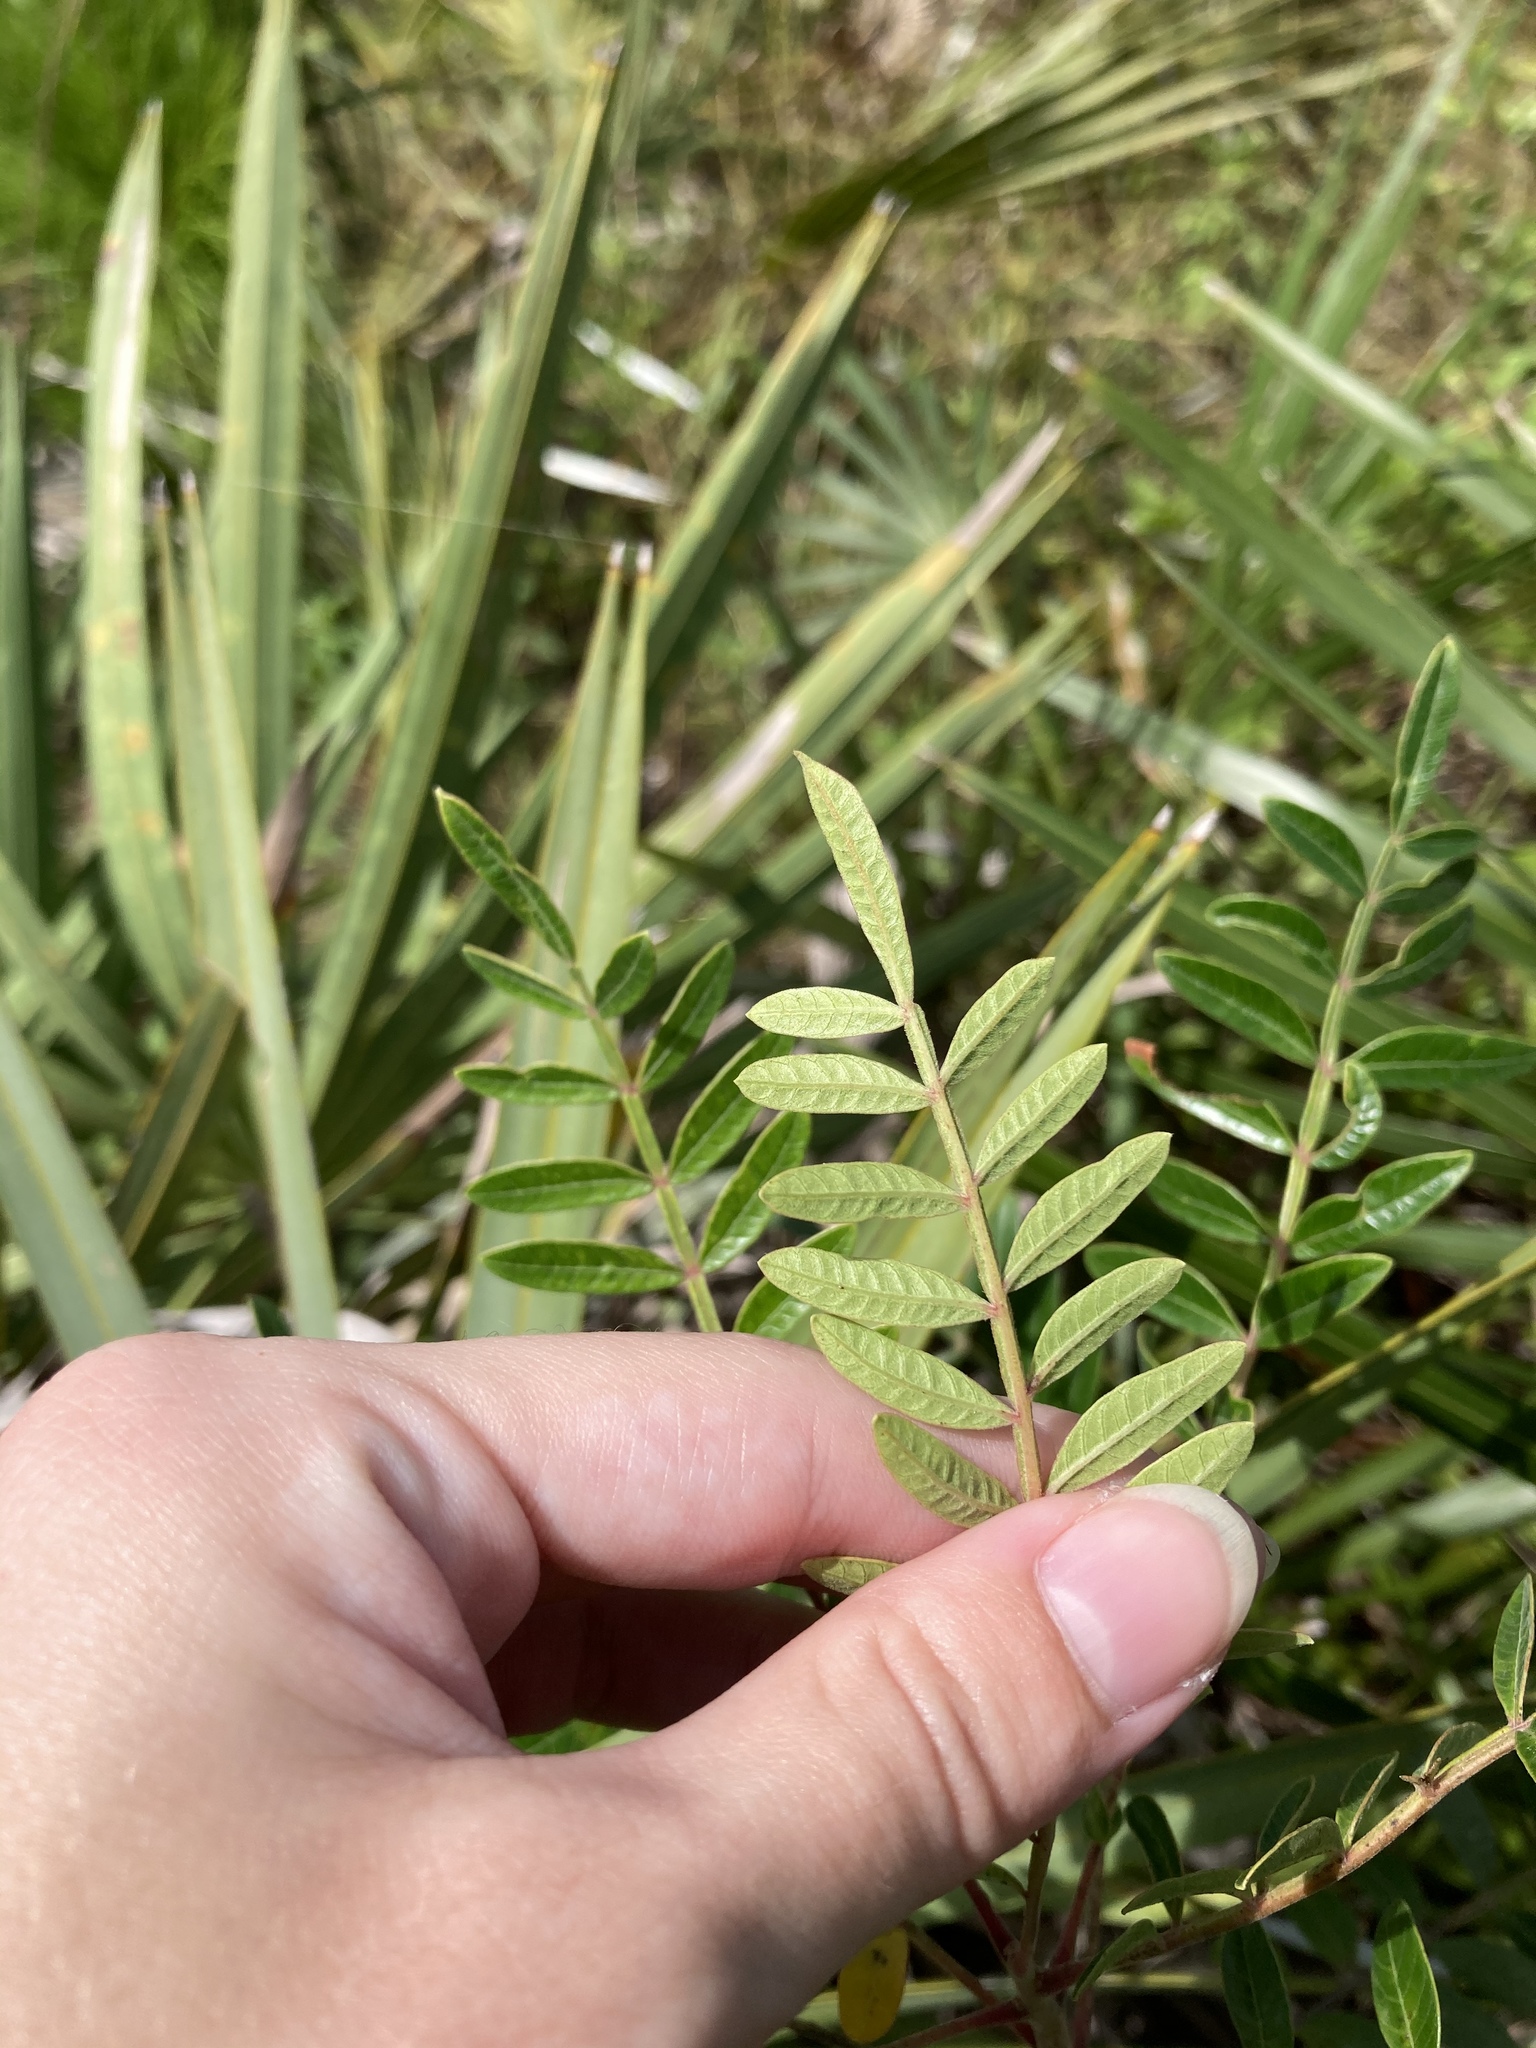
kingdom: Plantae
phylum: Tracheophyta
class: Magnoliopsida
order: Sapindales
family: Anacardiaceae
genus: Rhus
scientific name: Rhus copallina
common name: Shining sumac
